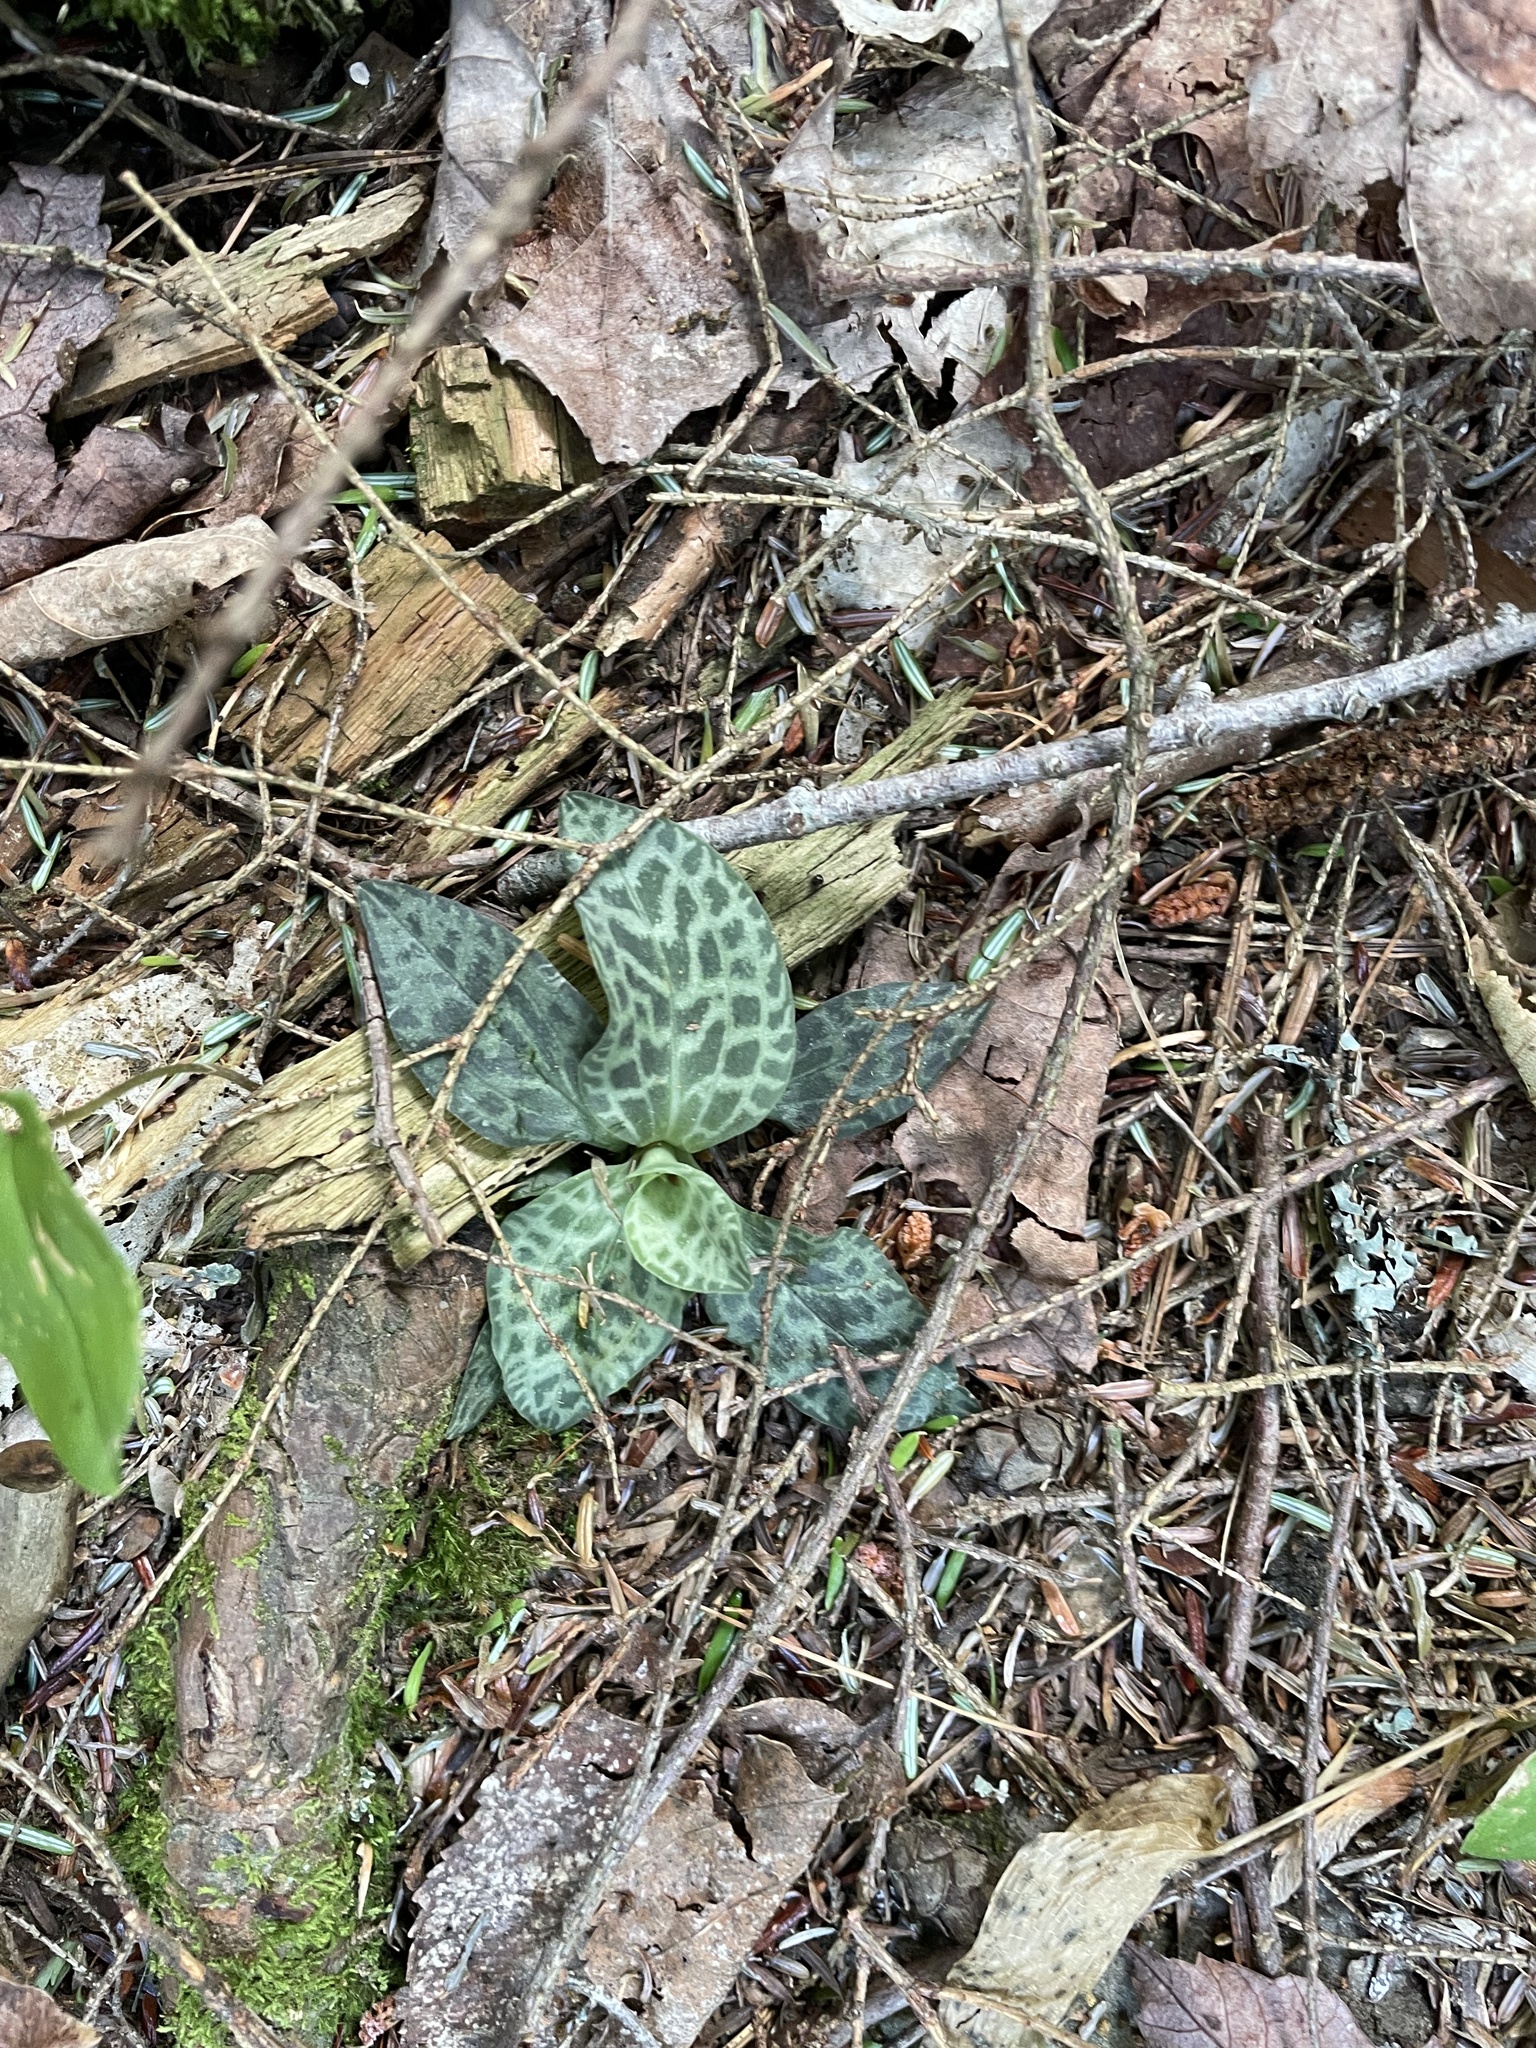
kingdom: Plantae
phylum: Tracheophyta
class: Liliopsida
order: Asparagales
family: Orchidaceae
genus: Goodyera
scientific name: Goodyera tesselata
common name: Checkered rattlesnake-plantain
